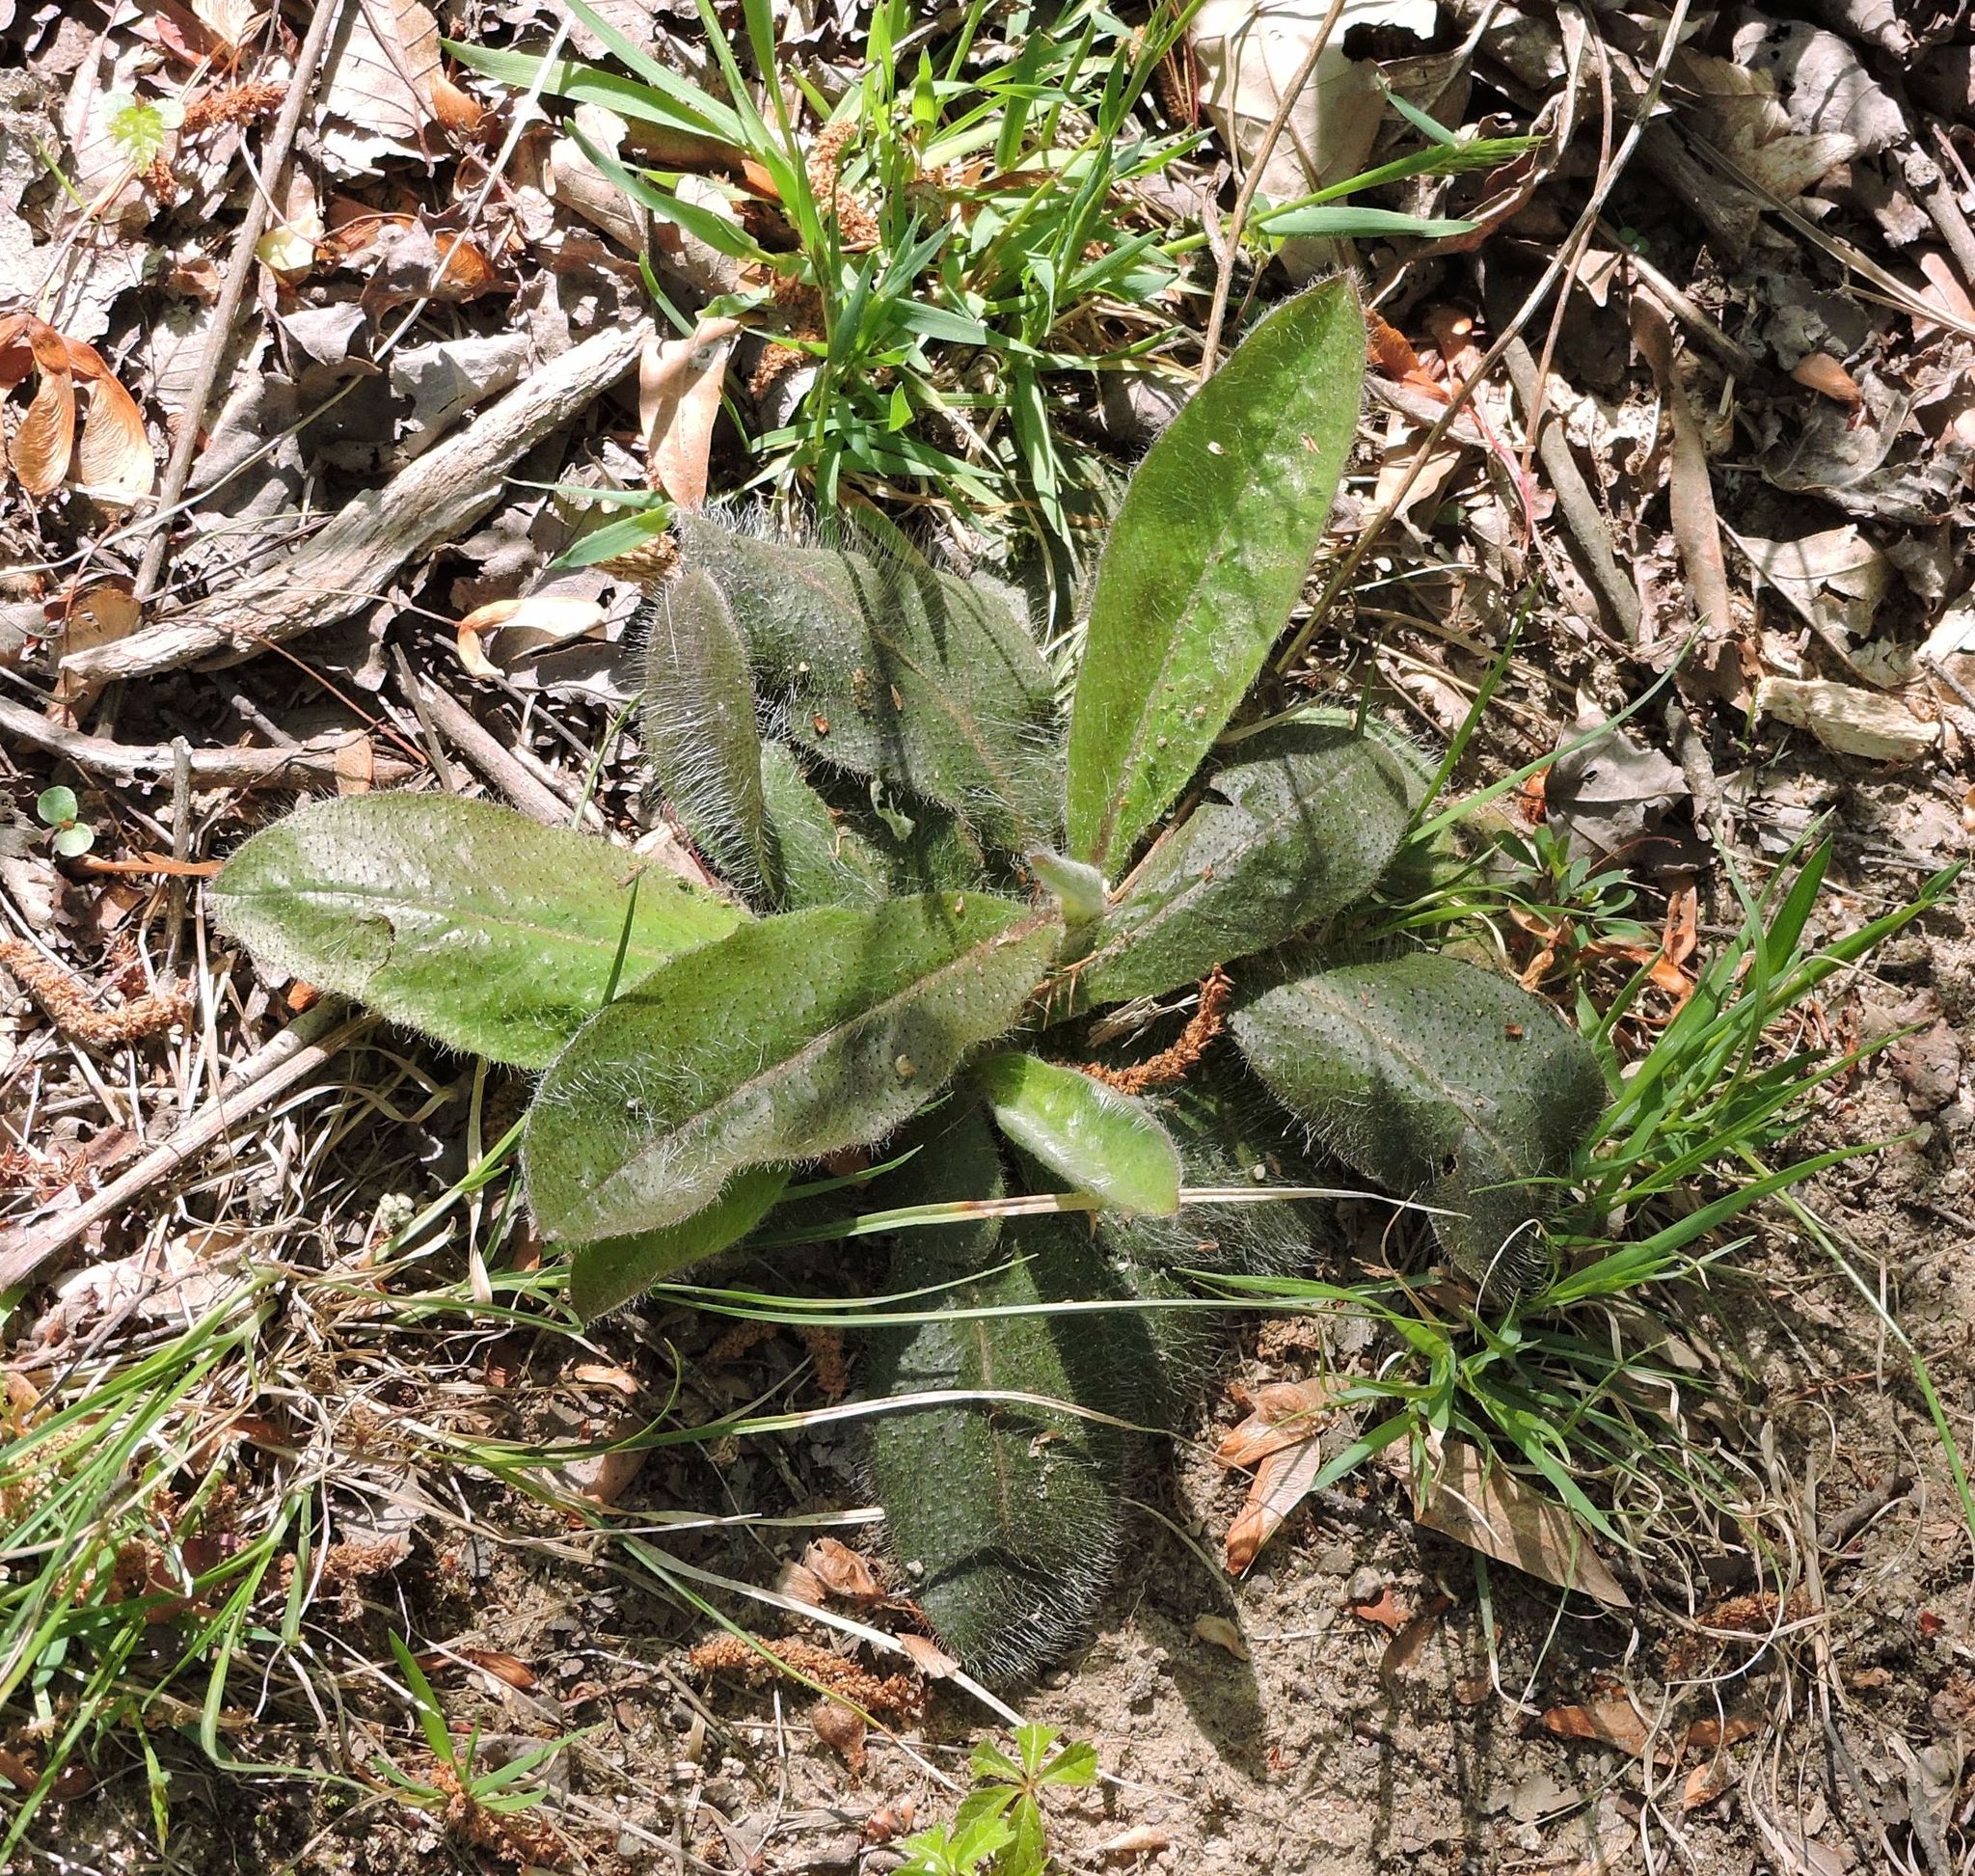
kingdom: Plantae
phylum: Tracheophyta
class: Magnoliopsida
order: Asterales
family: Asteraceae
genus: Pilosella
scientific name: Pilosella caespitosa
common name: Yellow fox-and-cubs
